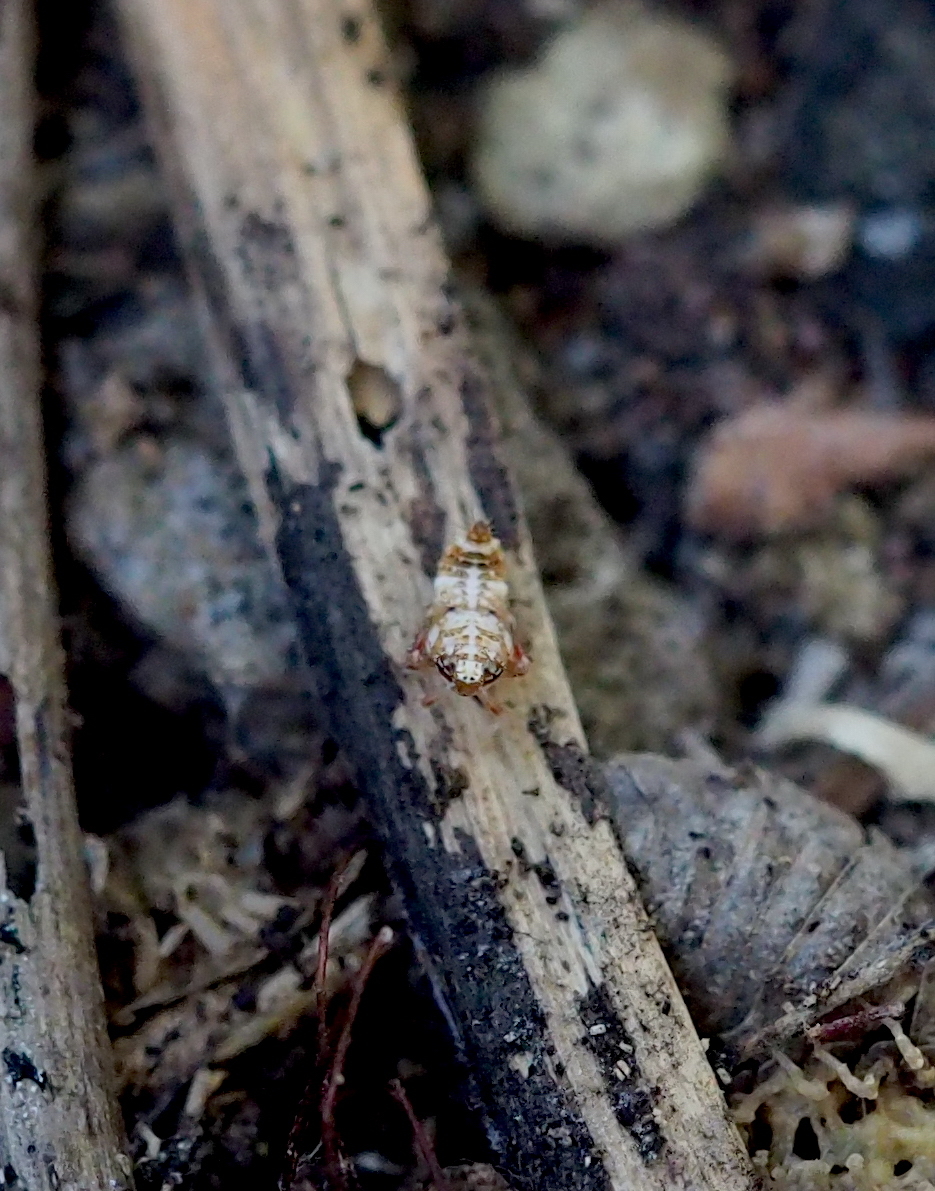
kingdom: Animalia
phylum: Arthropoda
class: Insecta
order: Hemiptera
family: Cicadellidae
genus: Orientus
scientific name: Orientus ishidae
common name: Japanese leafhopper
